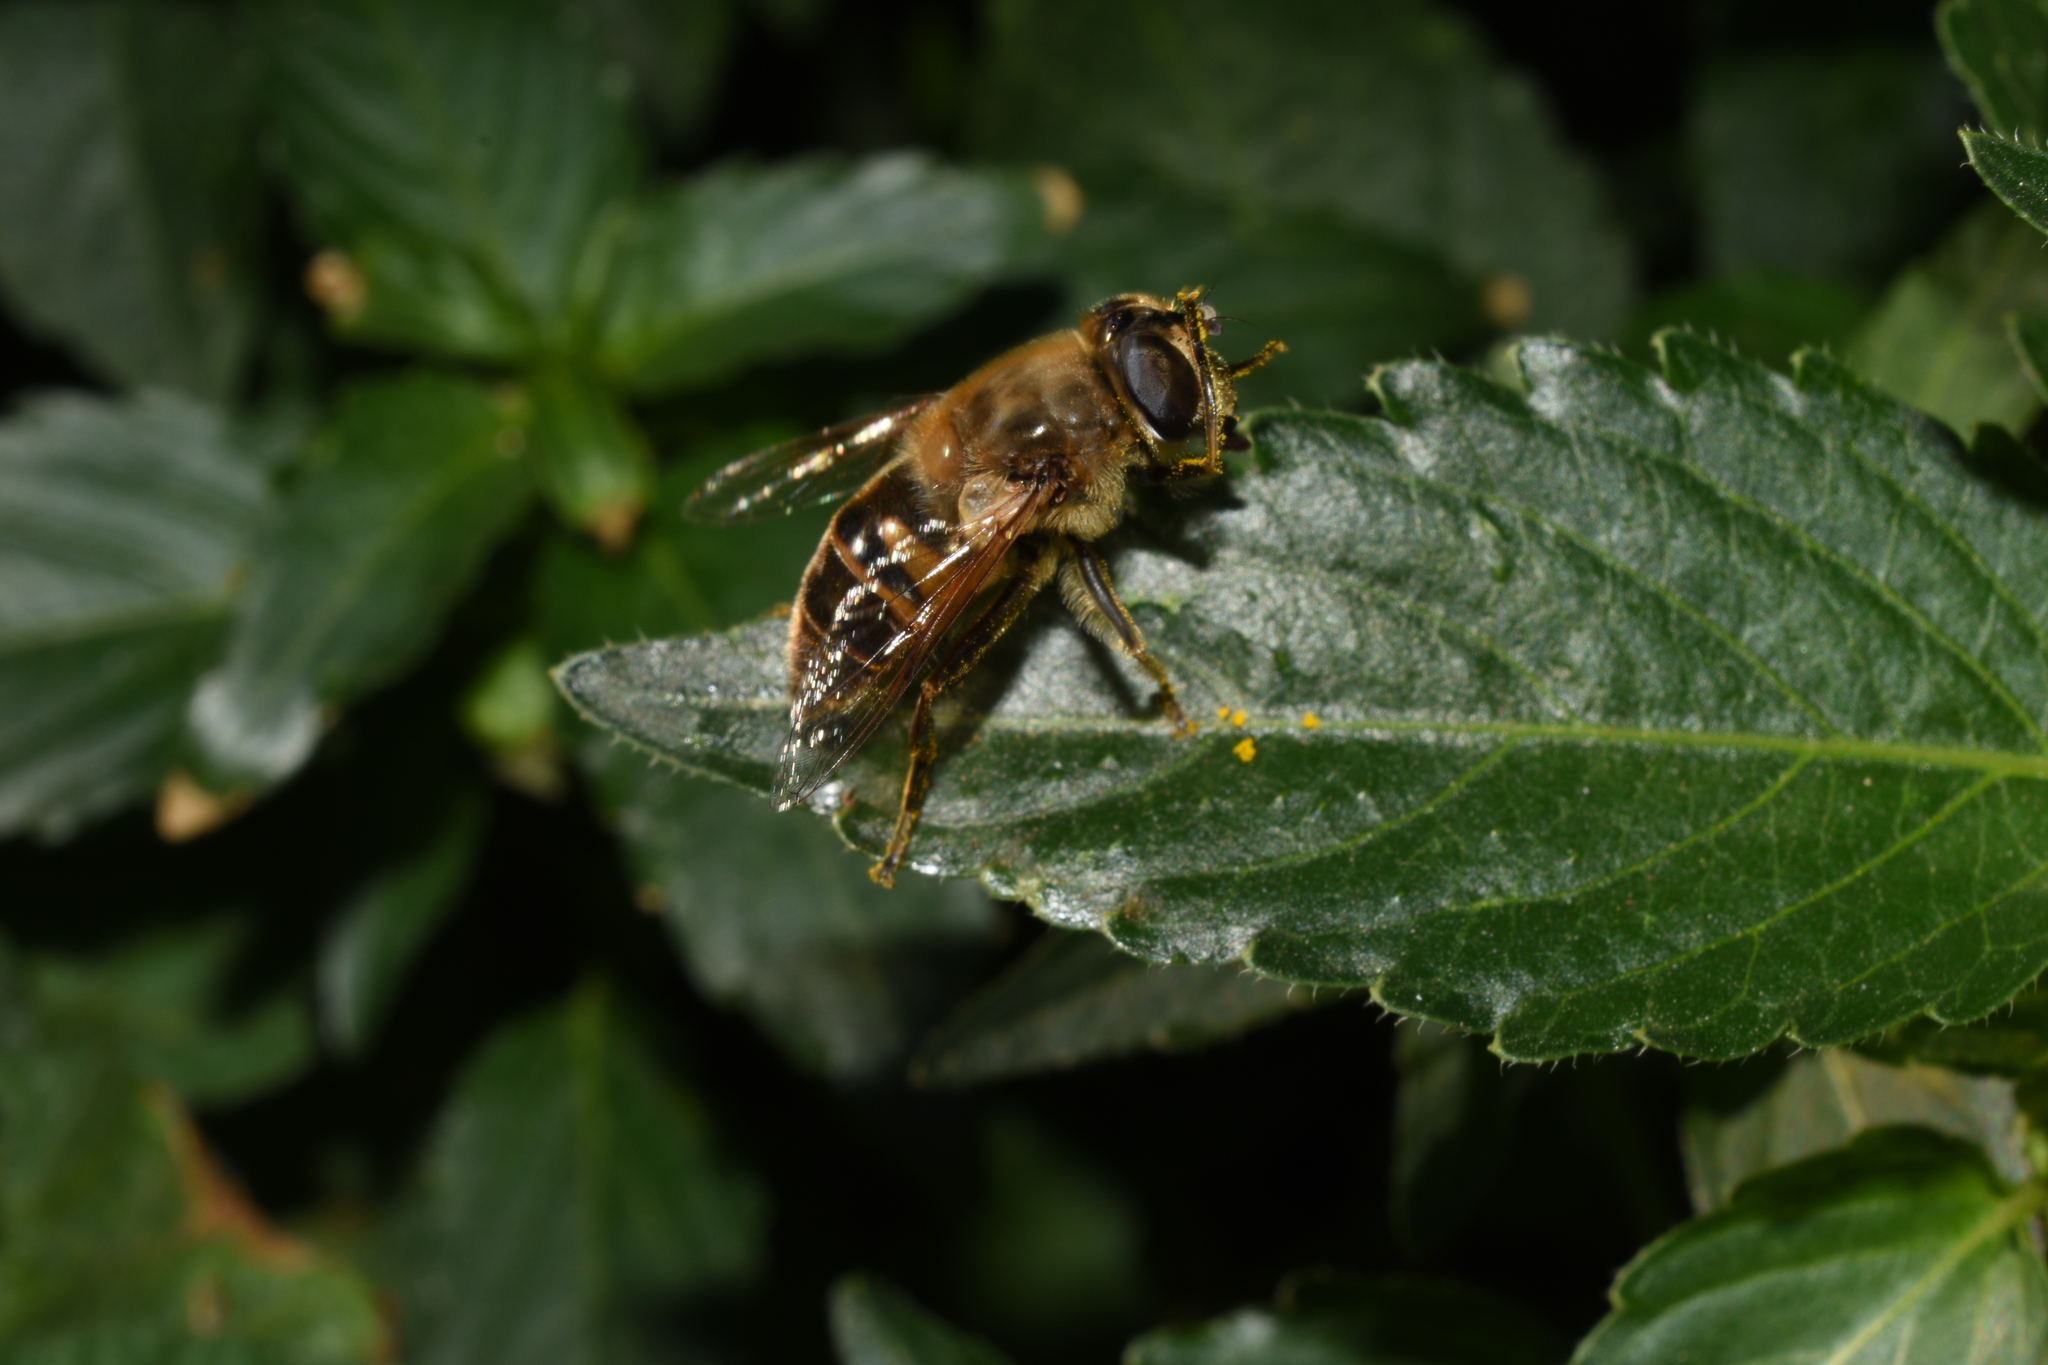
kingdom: Animalia
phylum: Arthropoda
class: Insecta
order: Diptera
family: Syrphidae
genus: Eristalis
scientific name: Eristalis tenax
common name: Drone fly
